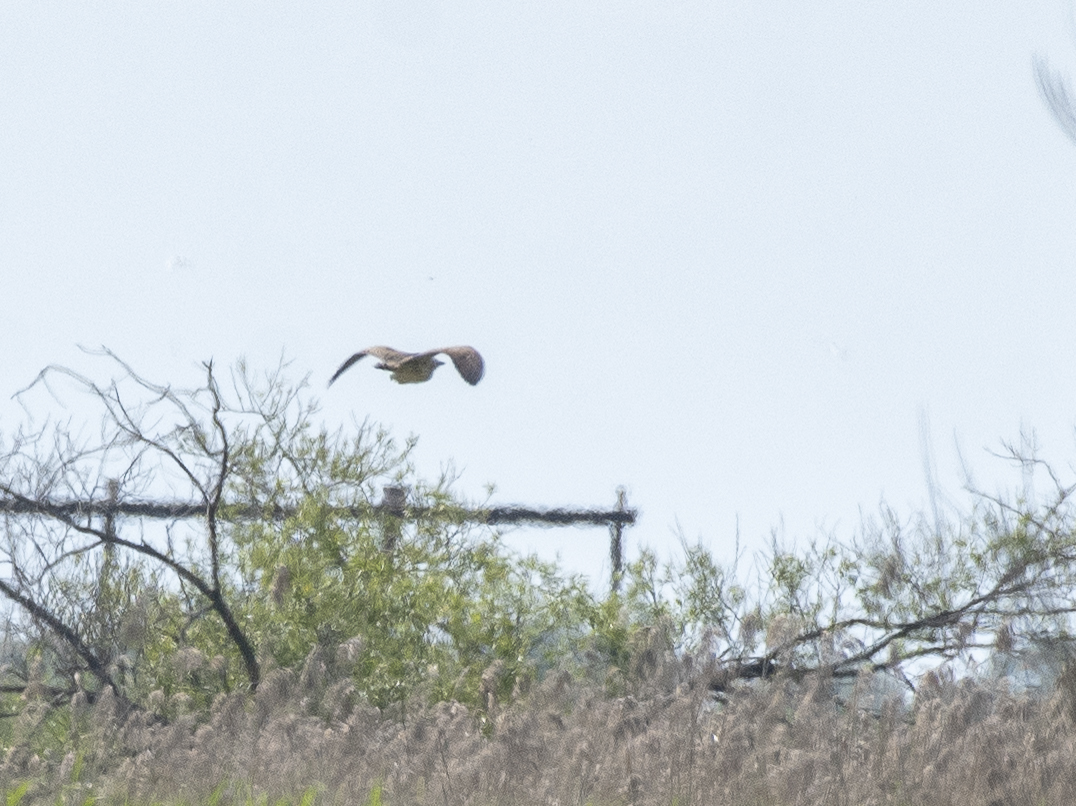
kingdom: Animalia
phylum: Chordata
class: Aves
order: Pelecaniformes
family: Ardeidae
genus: Botaurus
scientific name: Botaurus stellaris
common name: Eurasian bittern
